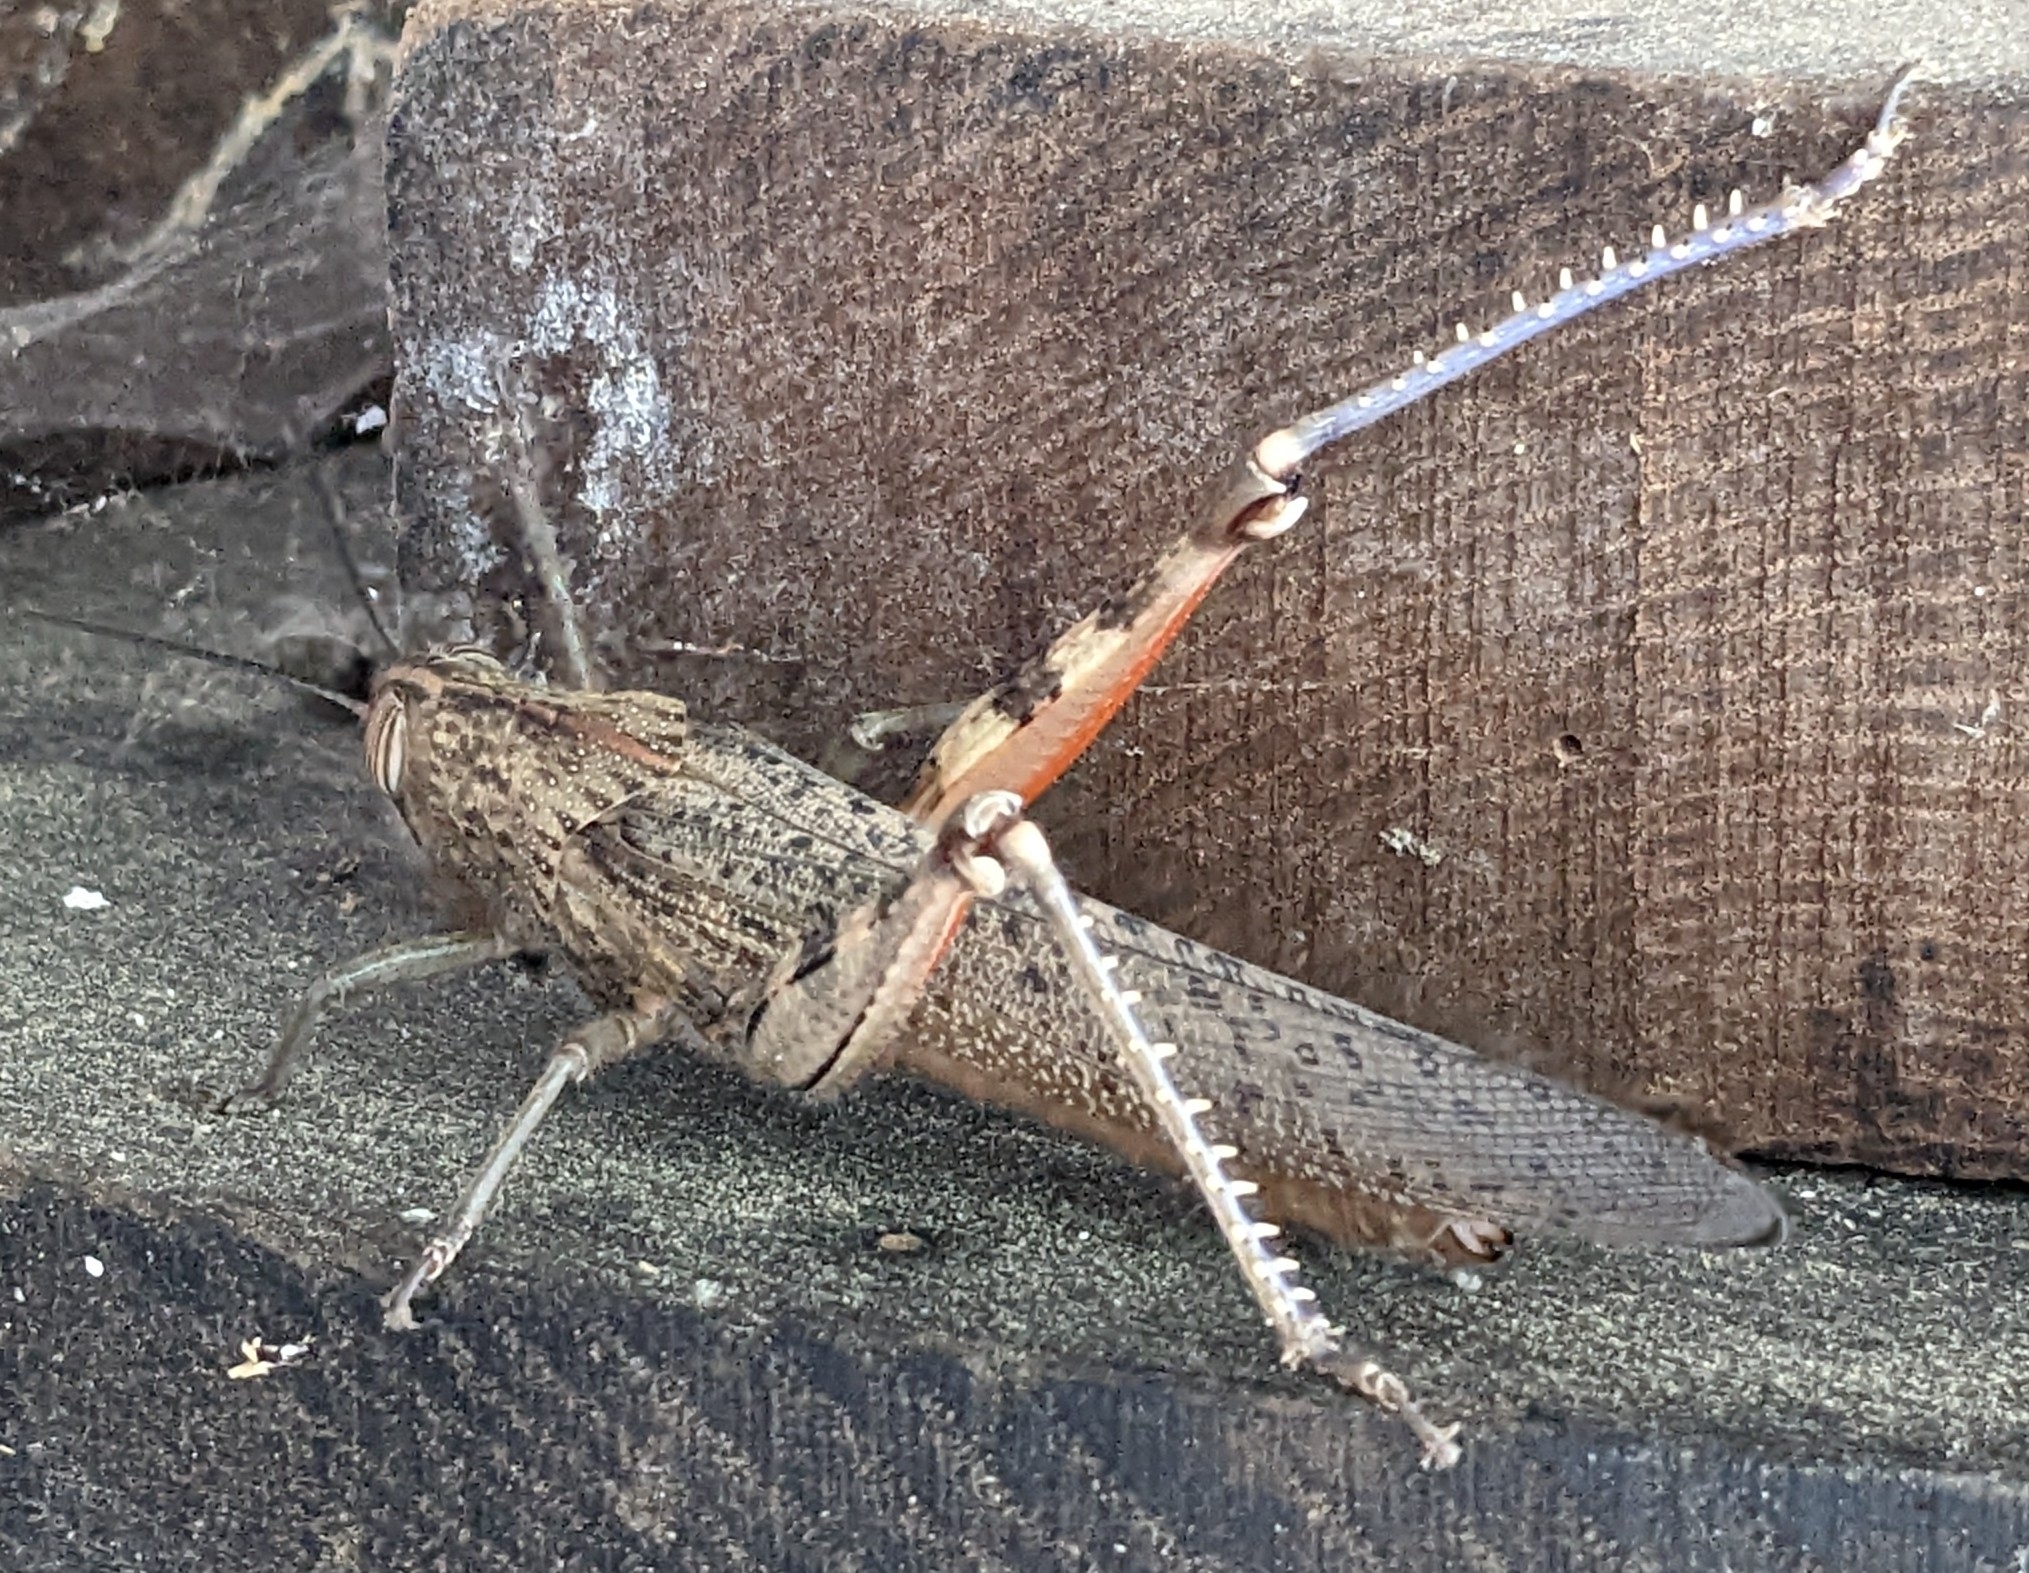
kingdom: Animalia
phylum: Arthropoda
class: Insecta
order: Orthoptera
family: Acrididae
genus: Anacridium
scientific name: Anacridium aegyptium
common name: Egyptian grasshopper
